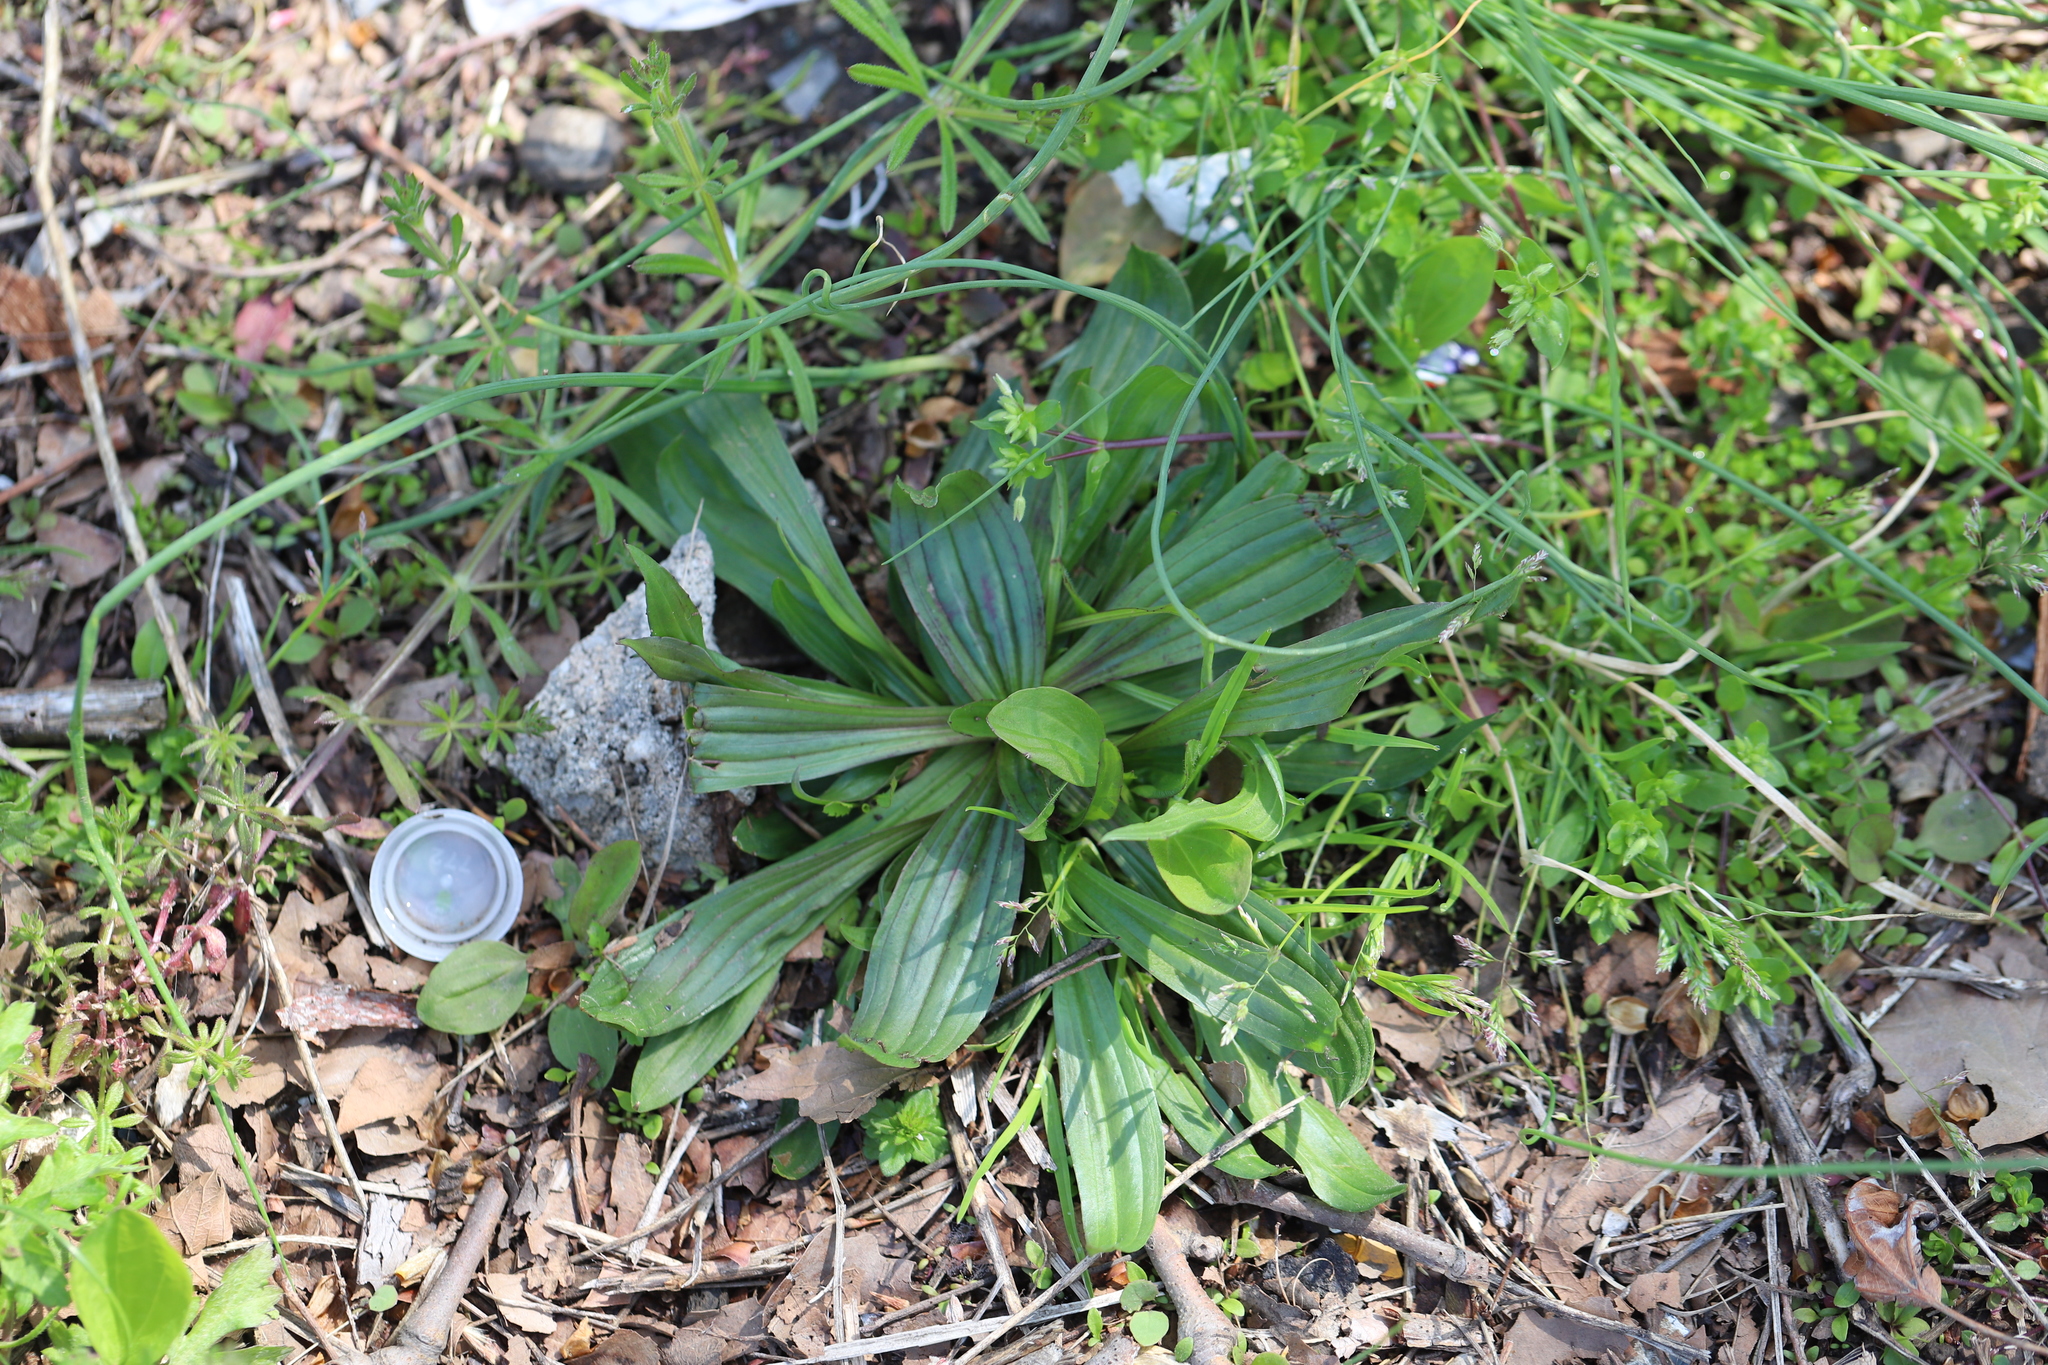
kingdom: Plantae
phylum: Tracheophyta
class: Magnoliopsida
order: Lamiales
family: Plantaginaceae
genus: Plantago
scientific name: Plantago lanceolata
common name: Ribwort plantain
